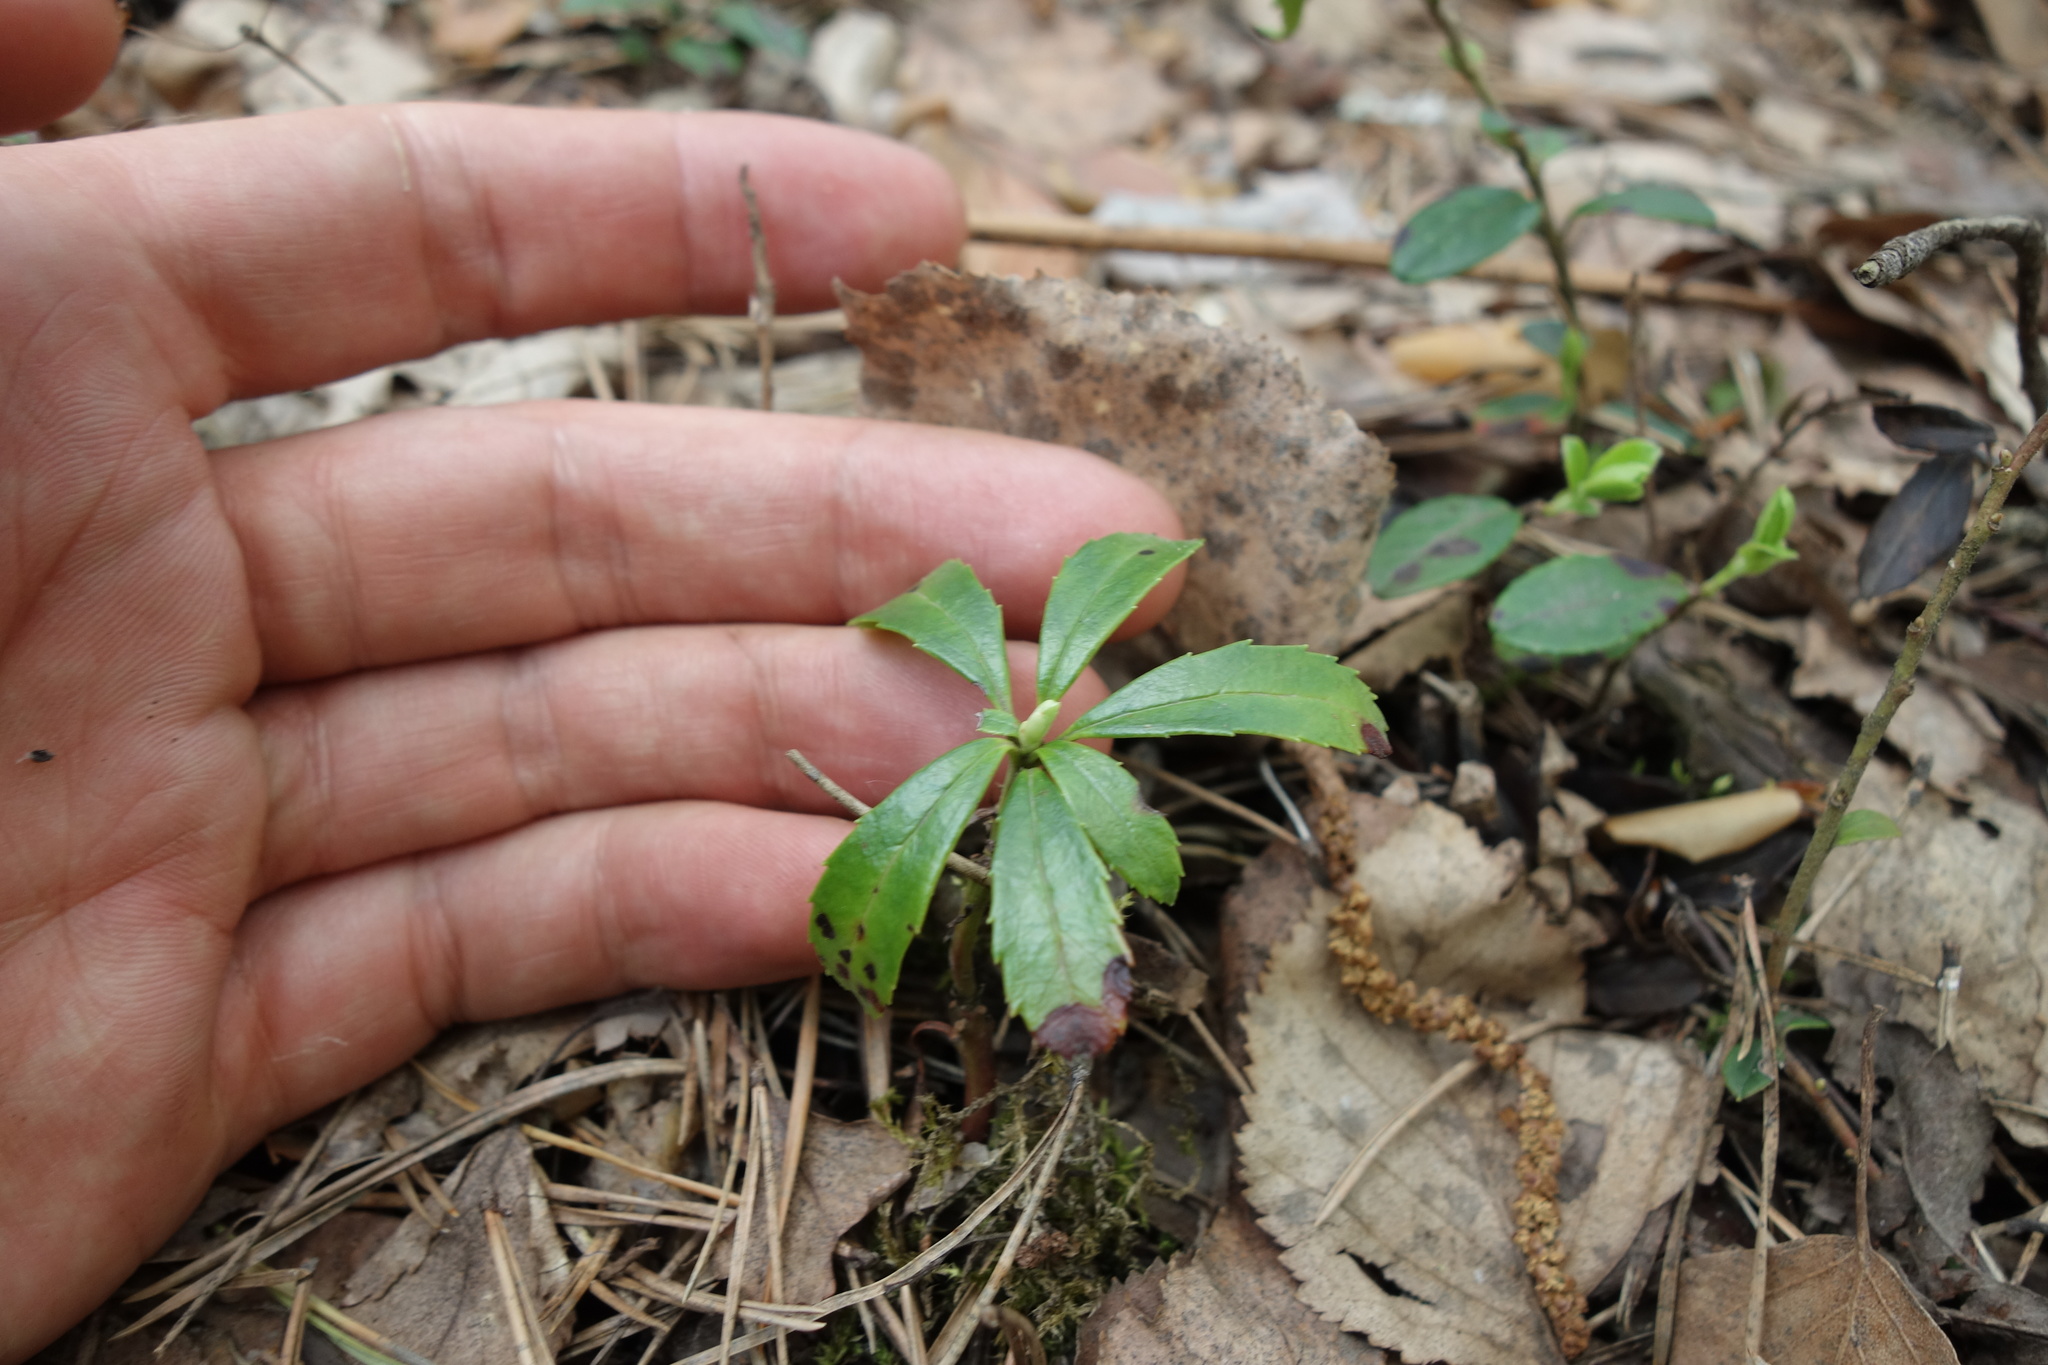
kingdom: Plantae
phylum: Tracheophyta
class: Magnoliopsida
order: Ericales
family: Ericaceae
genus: Chimaphila
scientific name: Chimaphila umbellata
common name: Pipsissewa
